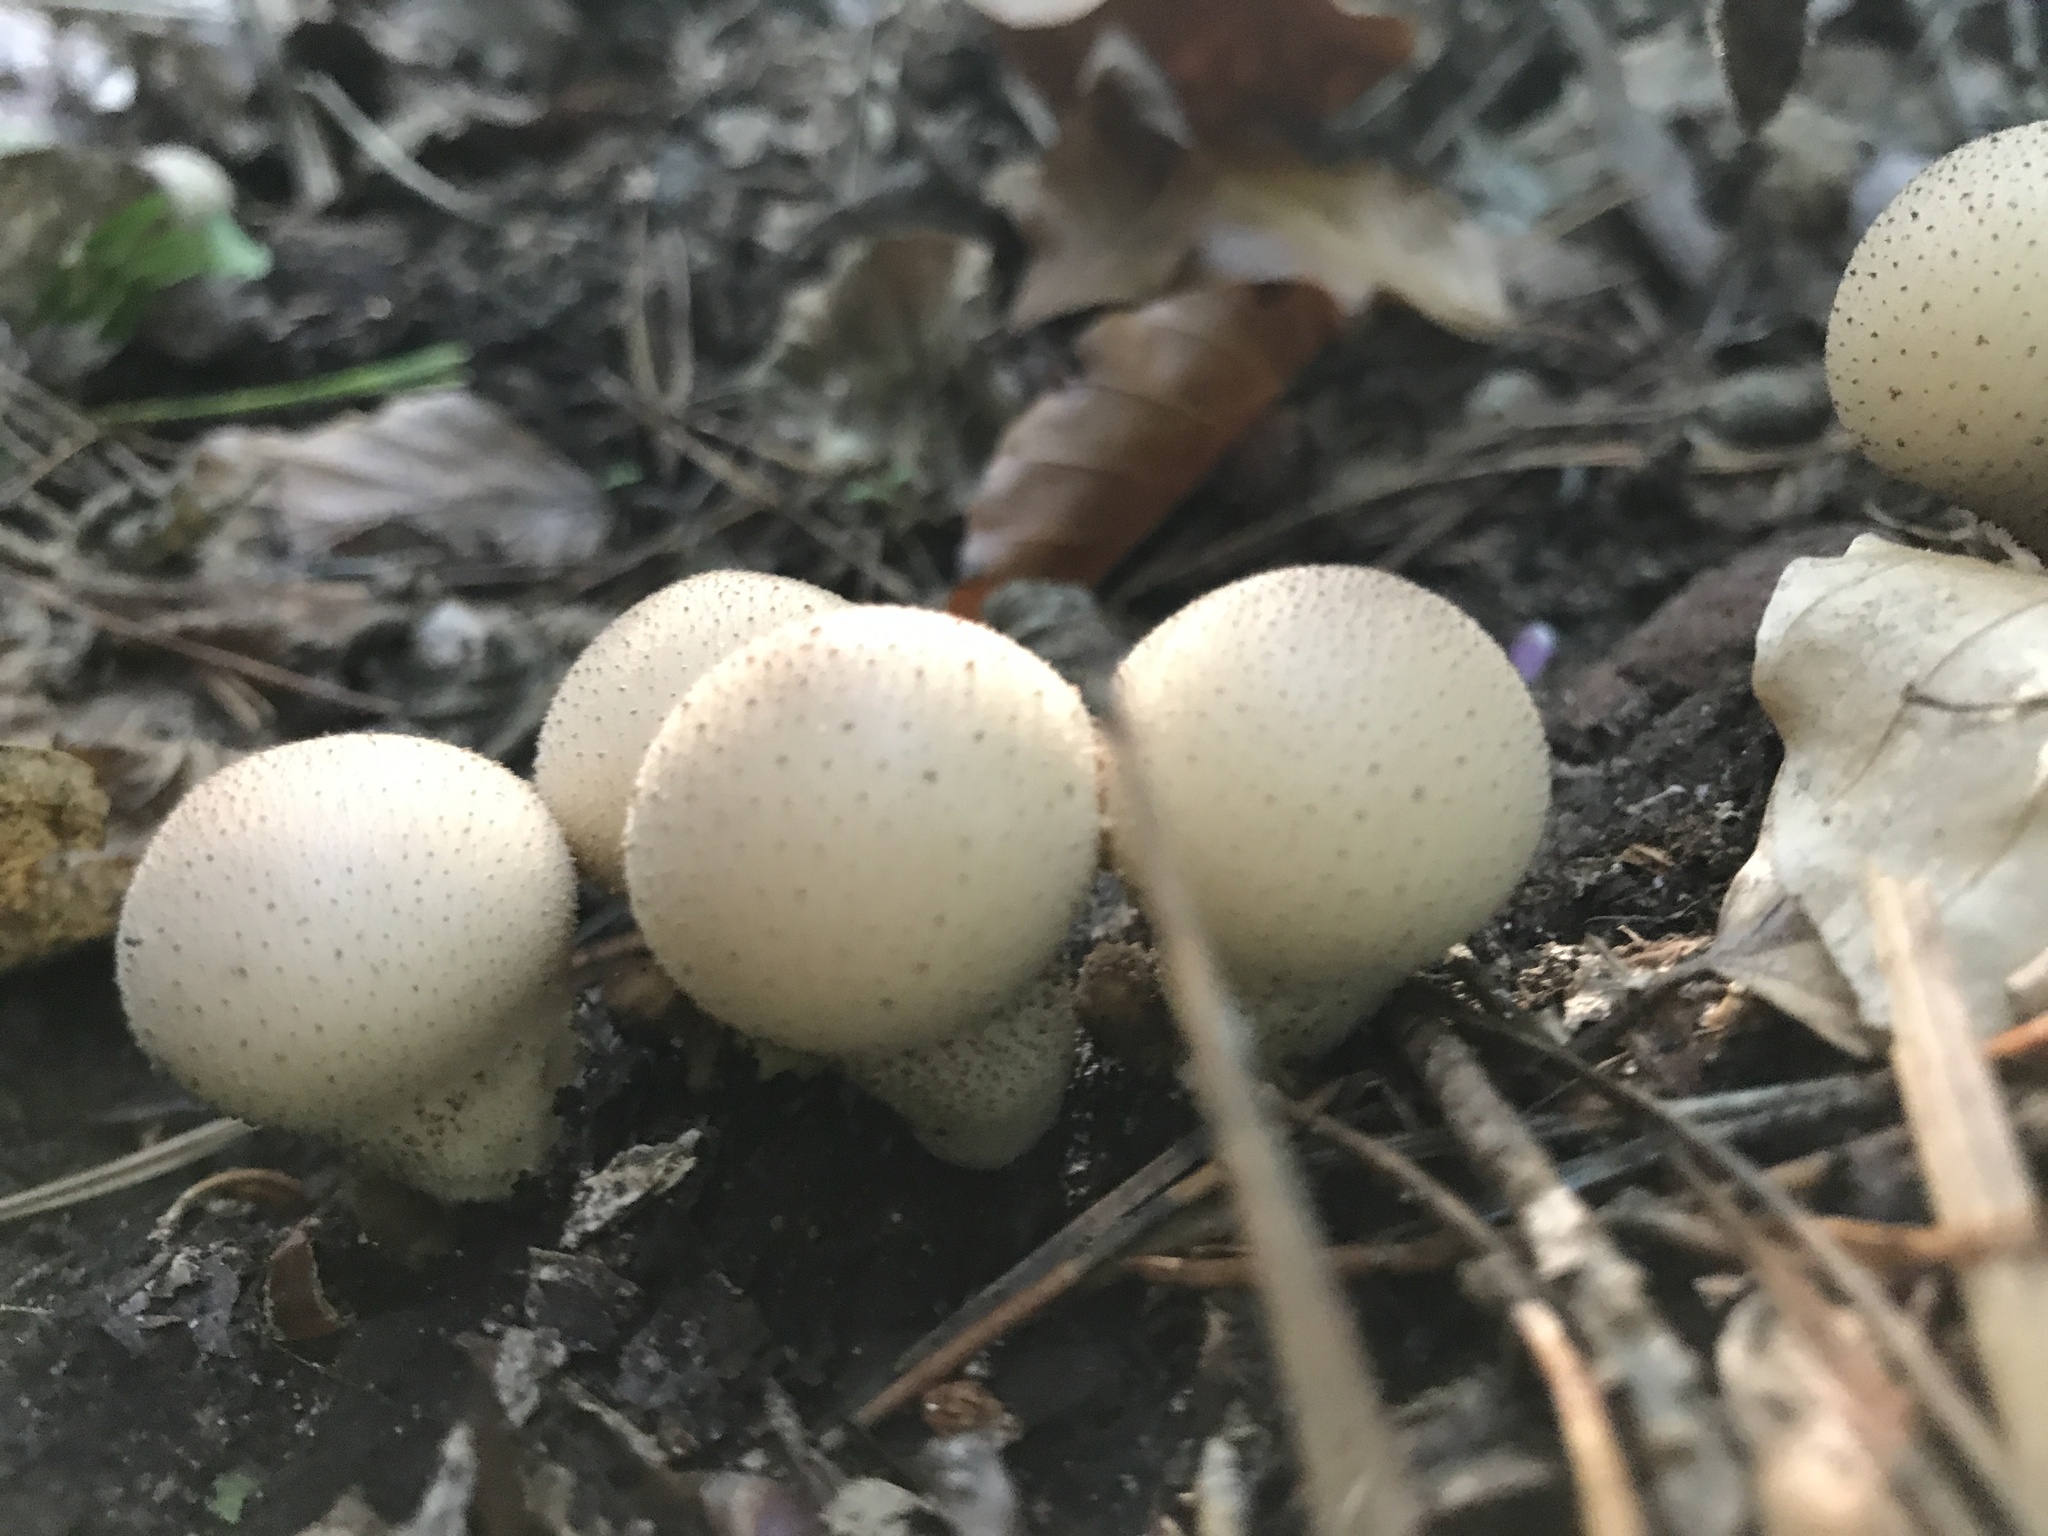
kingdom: Fungi
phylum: Basidiomycota
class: Agaricomycetes
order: Agaricales
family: Lycoperdaceae
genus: Apioperdon
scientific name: Apioperdon pyriforme
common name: Pear-shaped puffball
